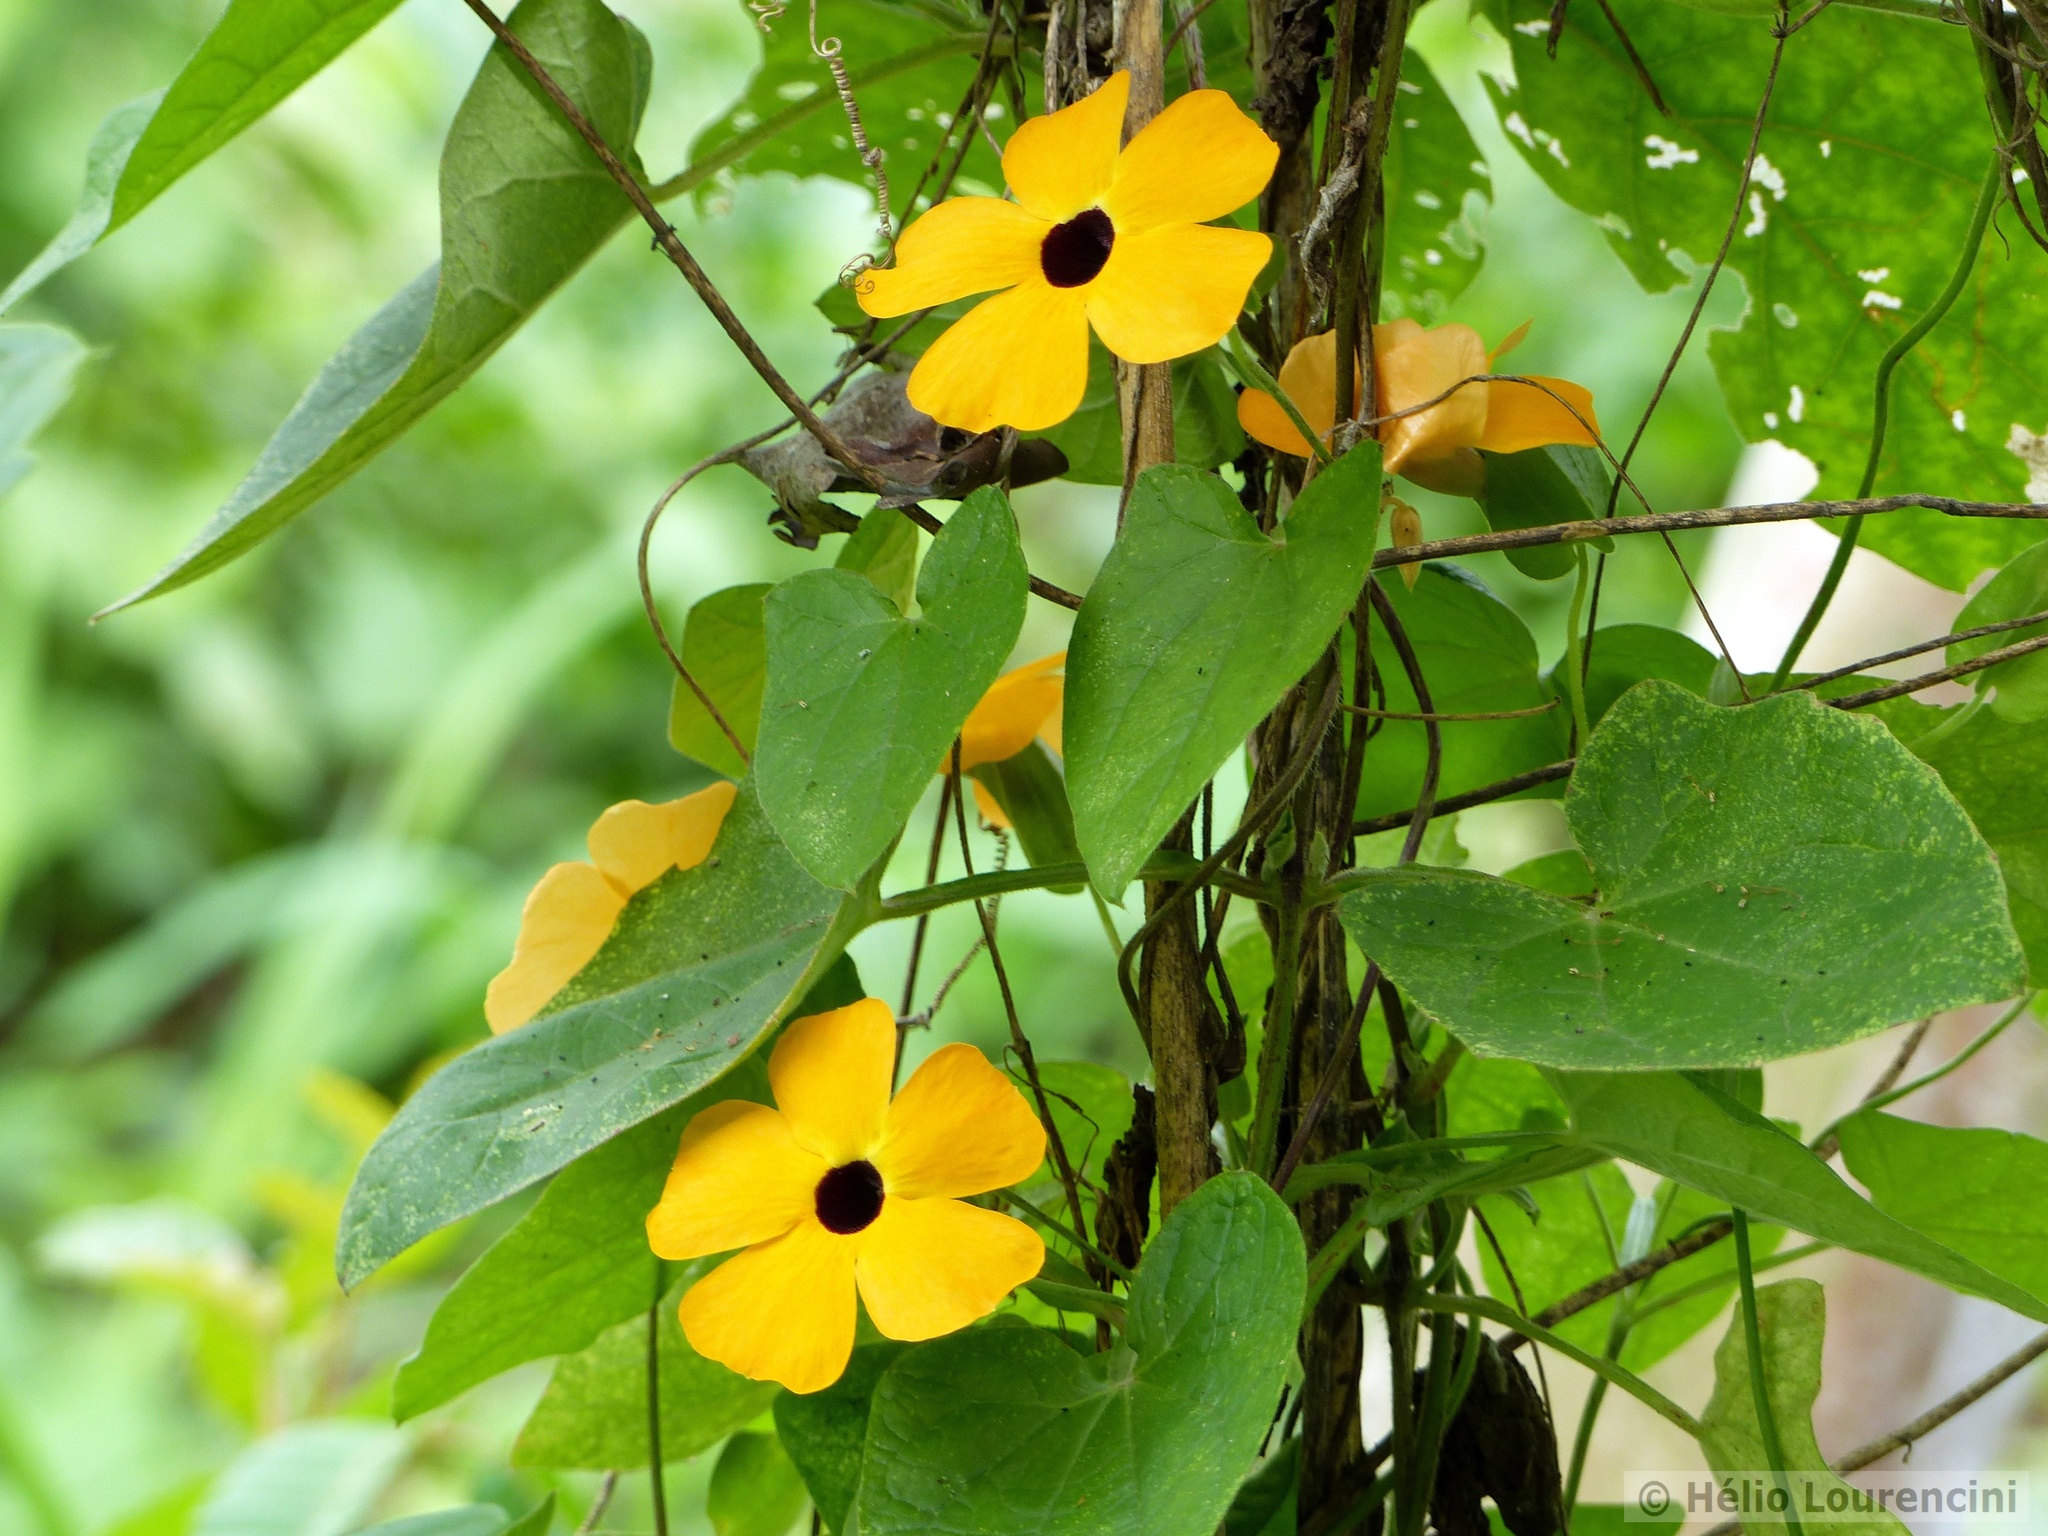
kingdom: Plantae
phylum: Tracheophyta
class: Magnoliopsida
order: Lamiales
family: Acanthaceae
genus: Thunbergia
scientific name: Thunbergia alata
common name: Blackeyed susan vine
